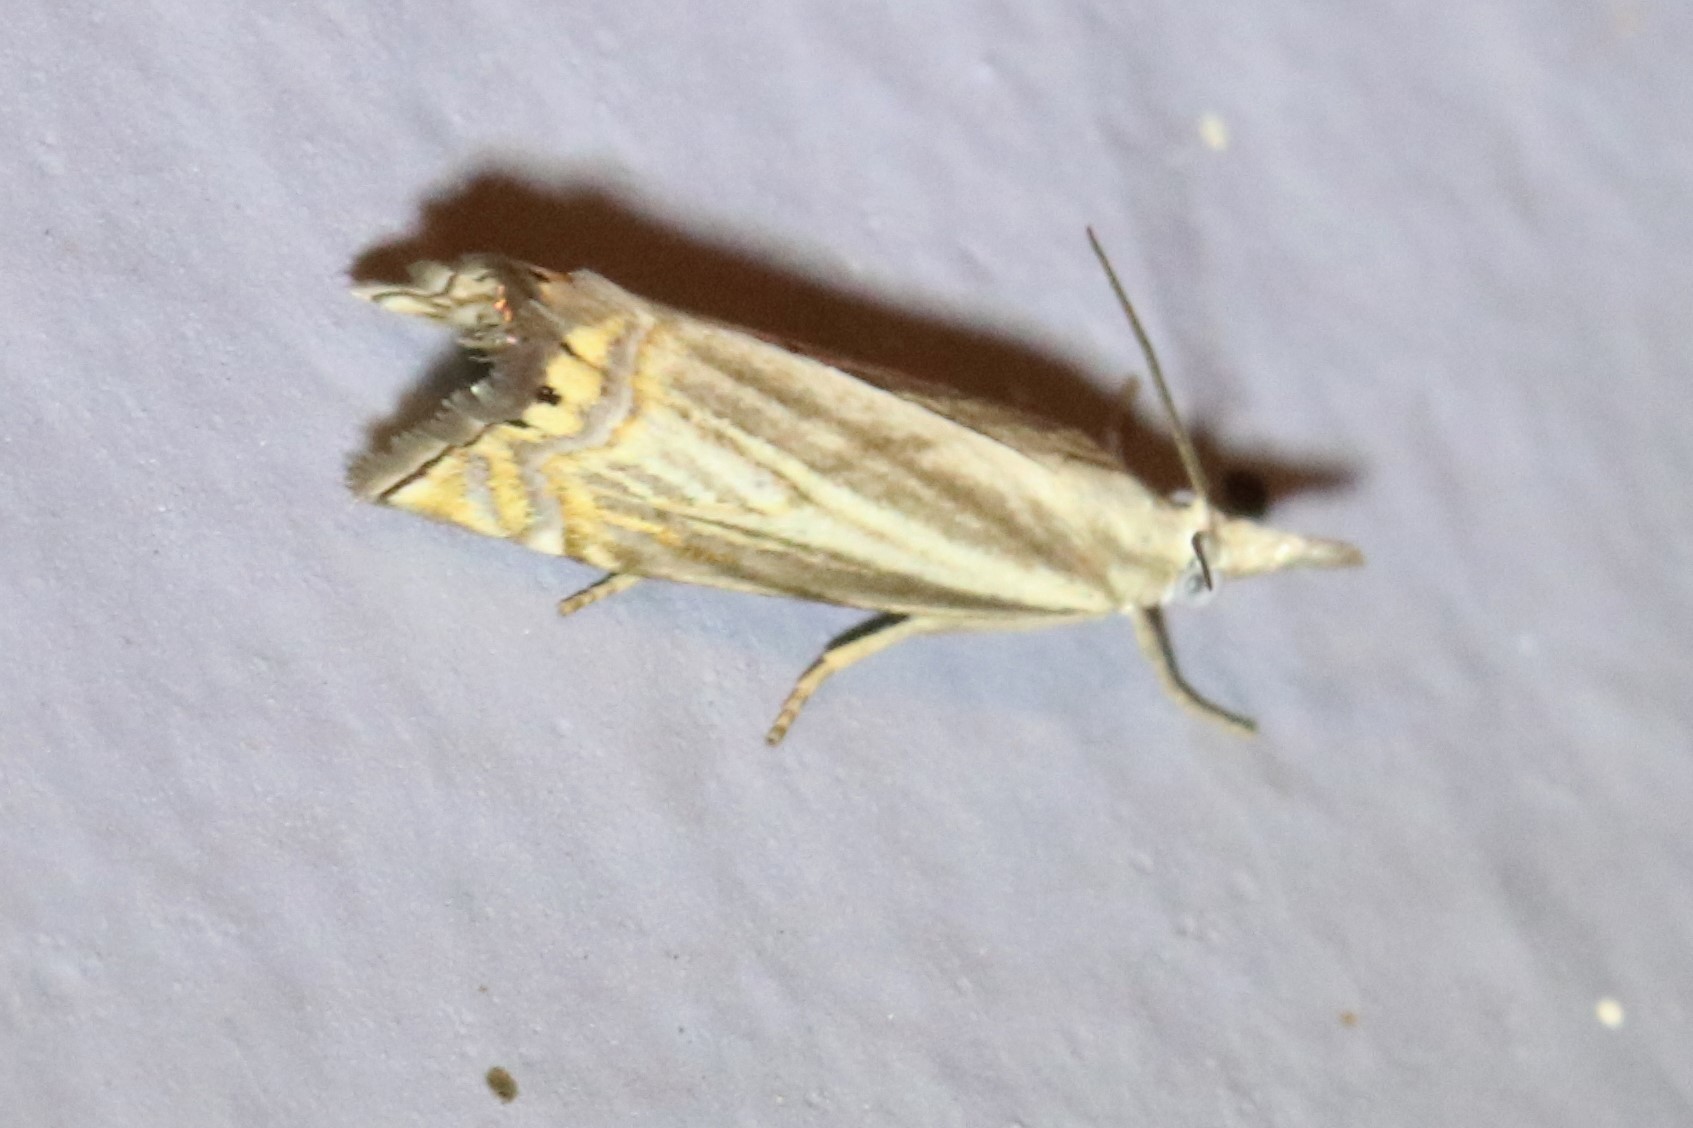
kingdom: Animalia
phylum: Arthropoda
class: Insecta
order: Lepidoptera
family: Crambidae
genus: Chrysoteuchia
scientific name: Chrysoteuchia topiarius
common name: Topiary grass-veneer
